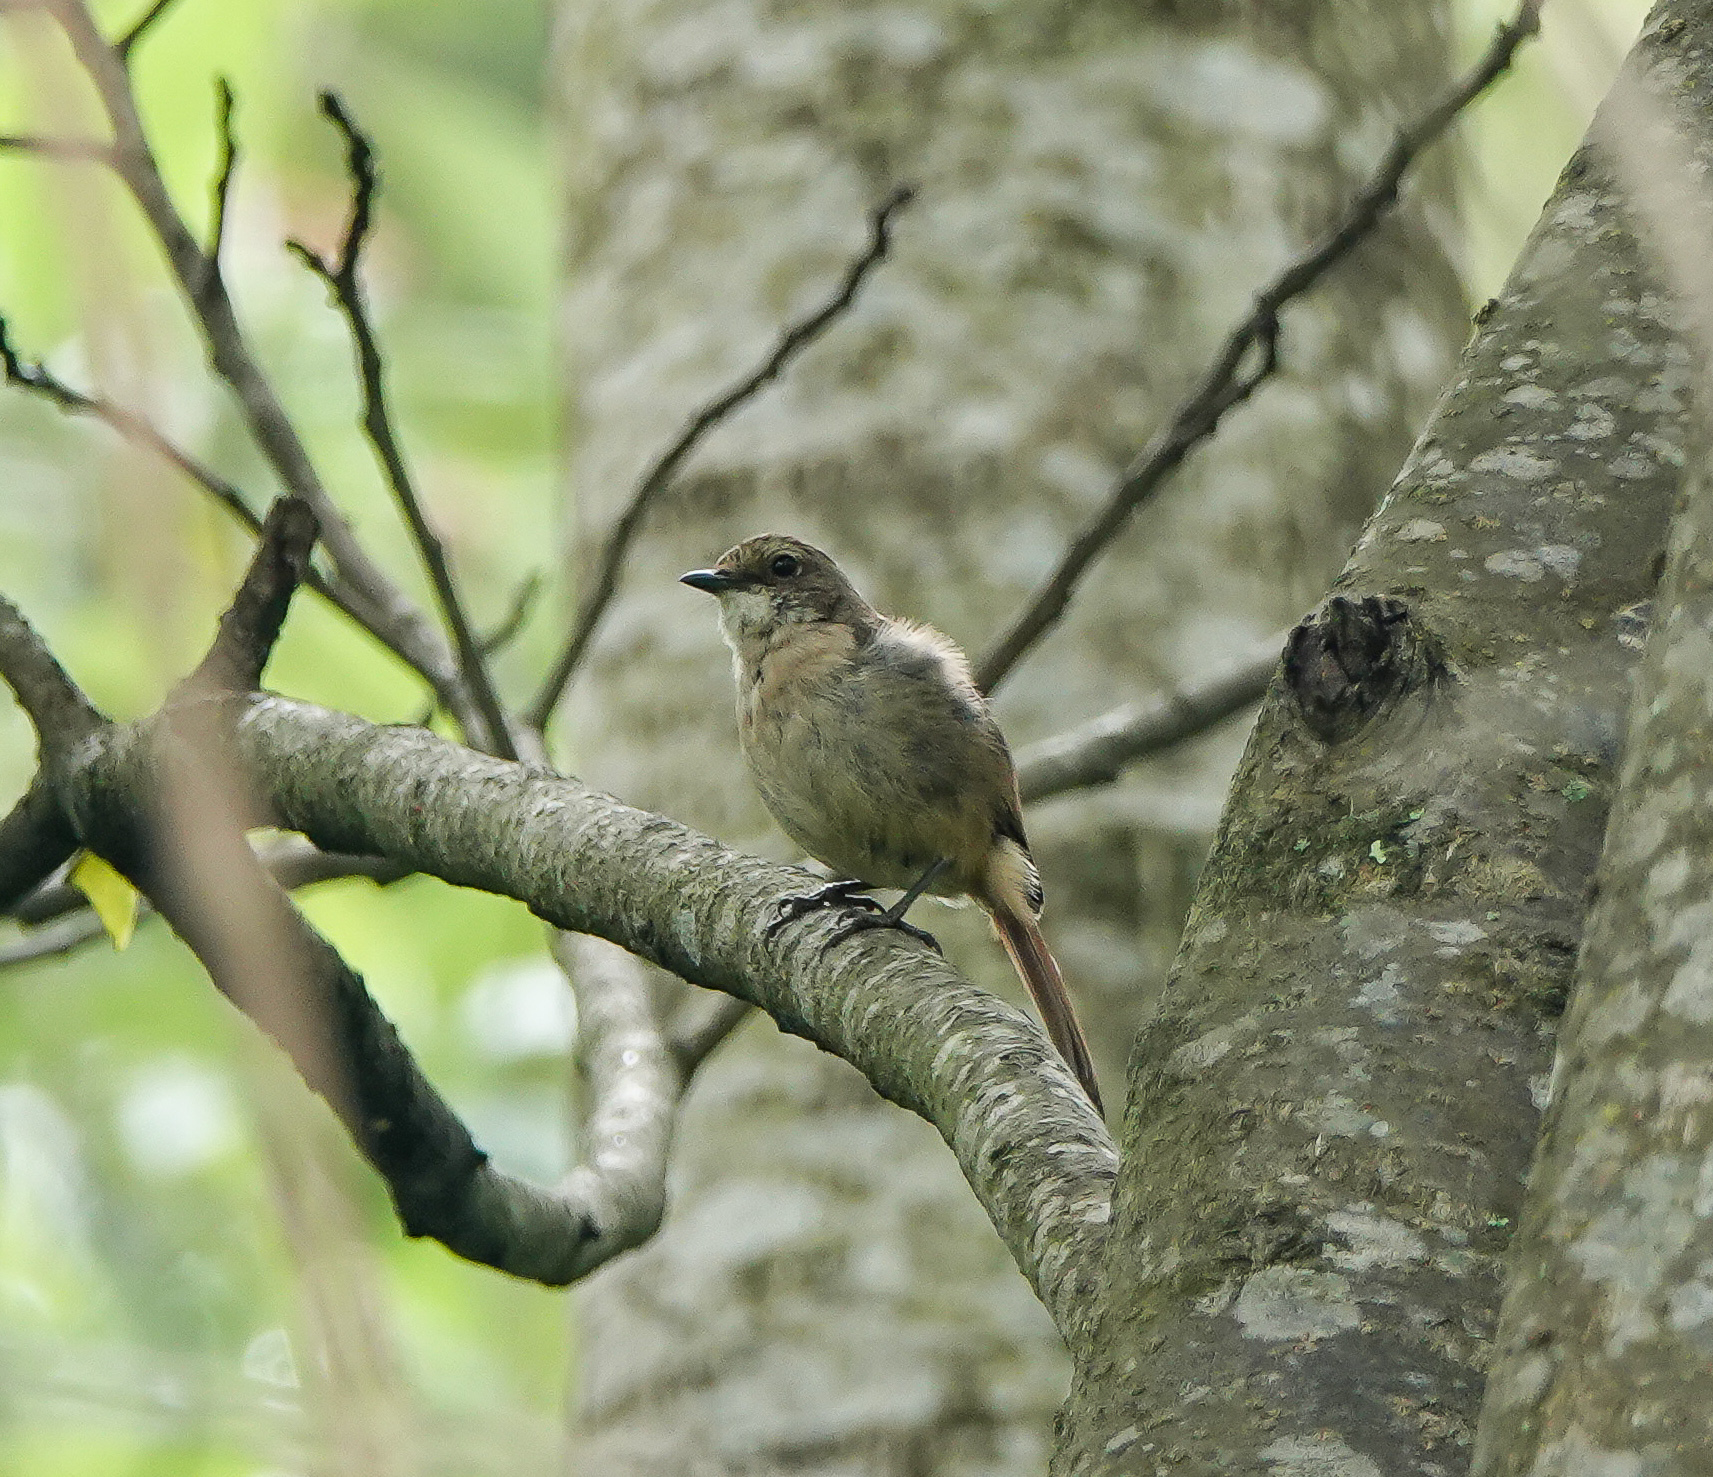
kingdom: Animalia
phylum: Chordata
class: Aves
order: Passeriformes
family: Muscicapidae
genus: Saxicola
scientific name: Saxicola ferreus
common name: Grey bush chat
